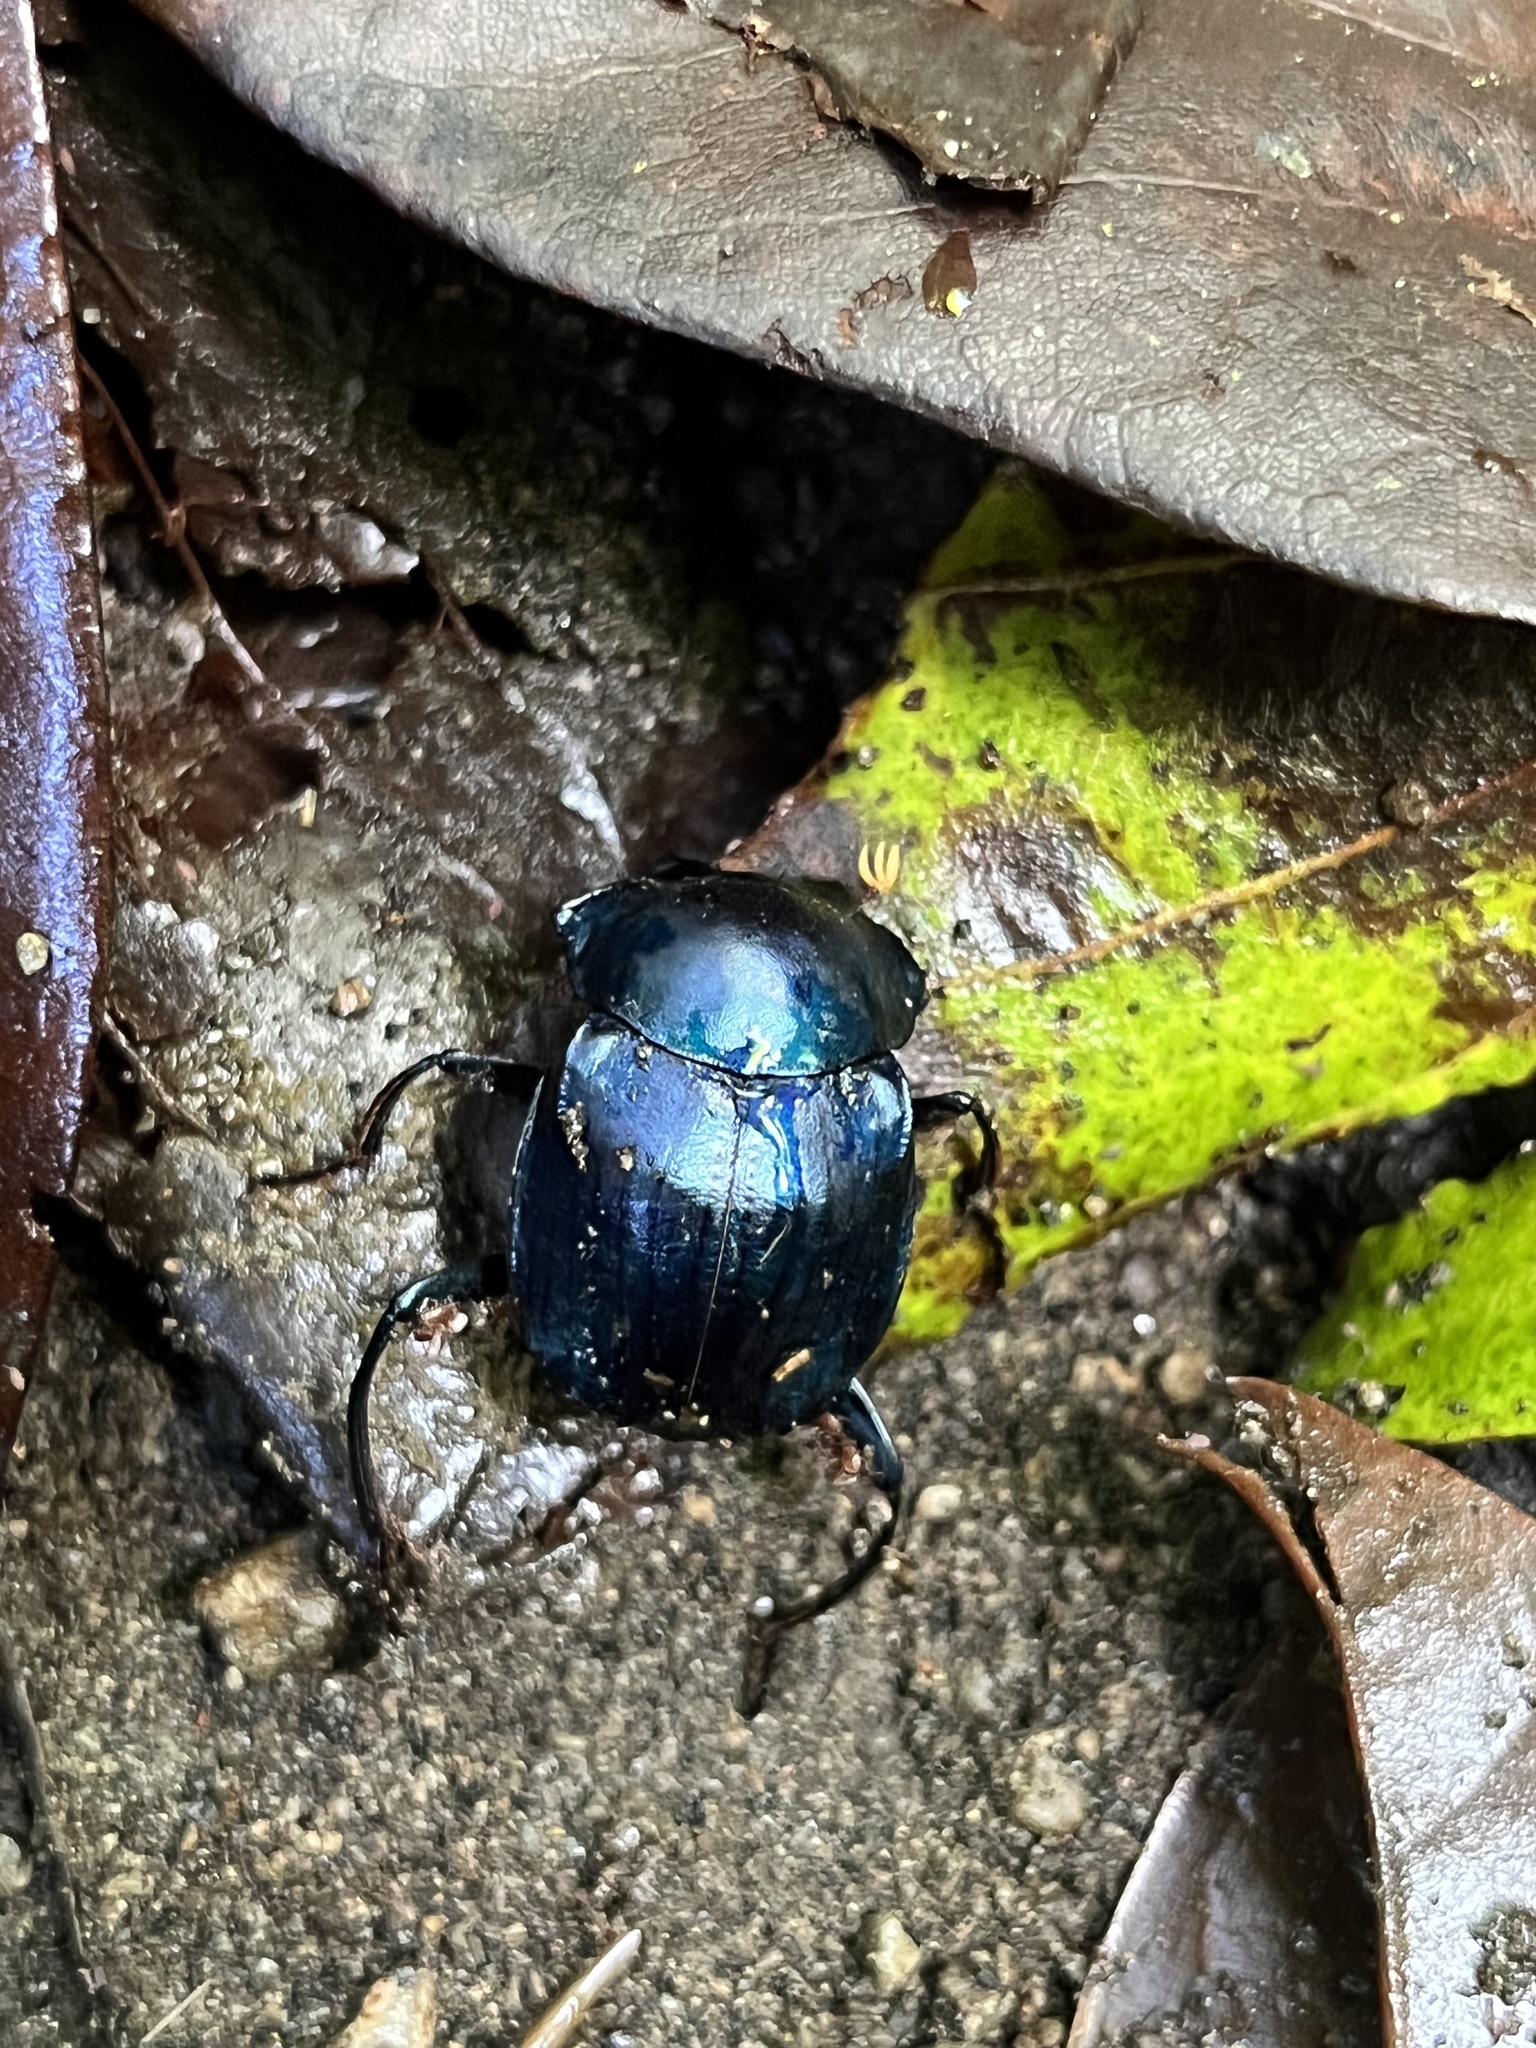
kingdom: Animalia
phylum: Arthropoda
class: Insecta
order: Coleoptera
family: Scarabaeidae
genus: Deltochilum
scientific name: Deltochilum burmeisteri
